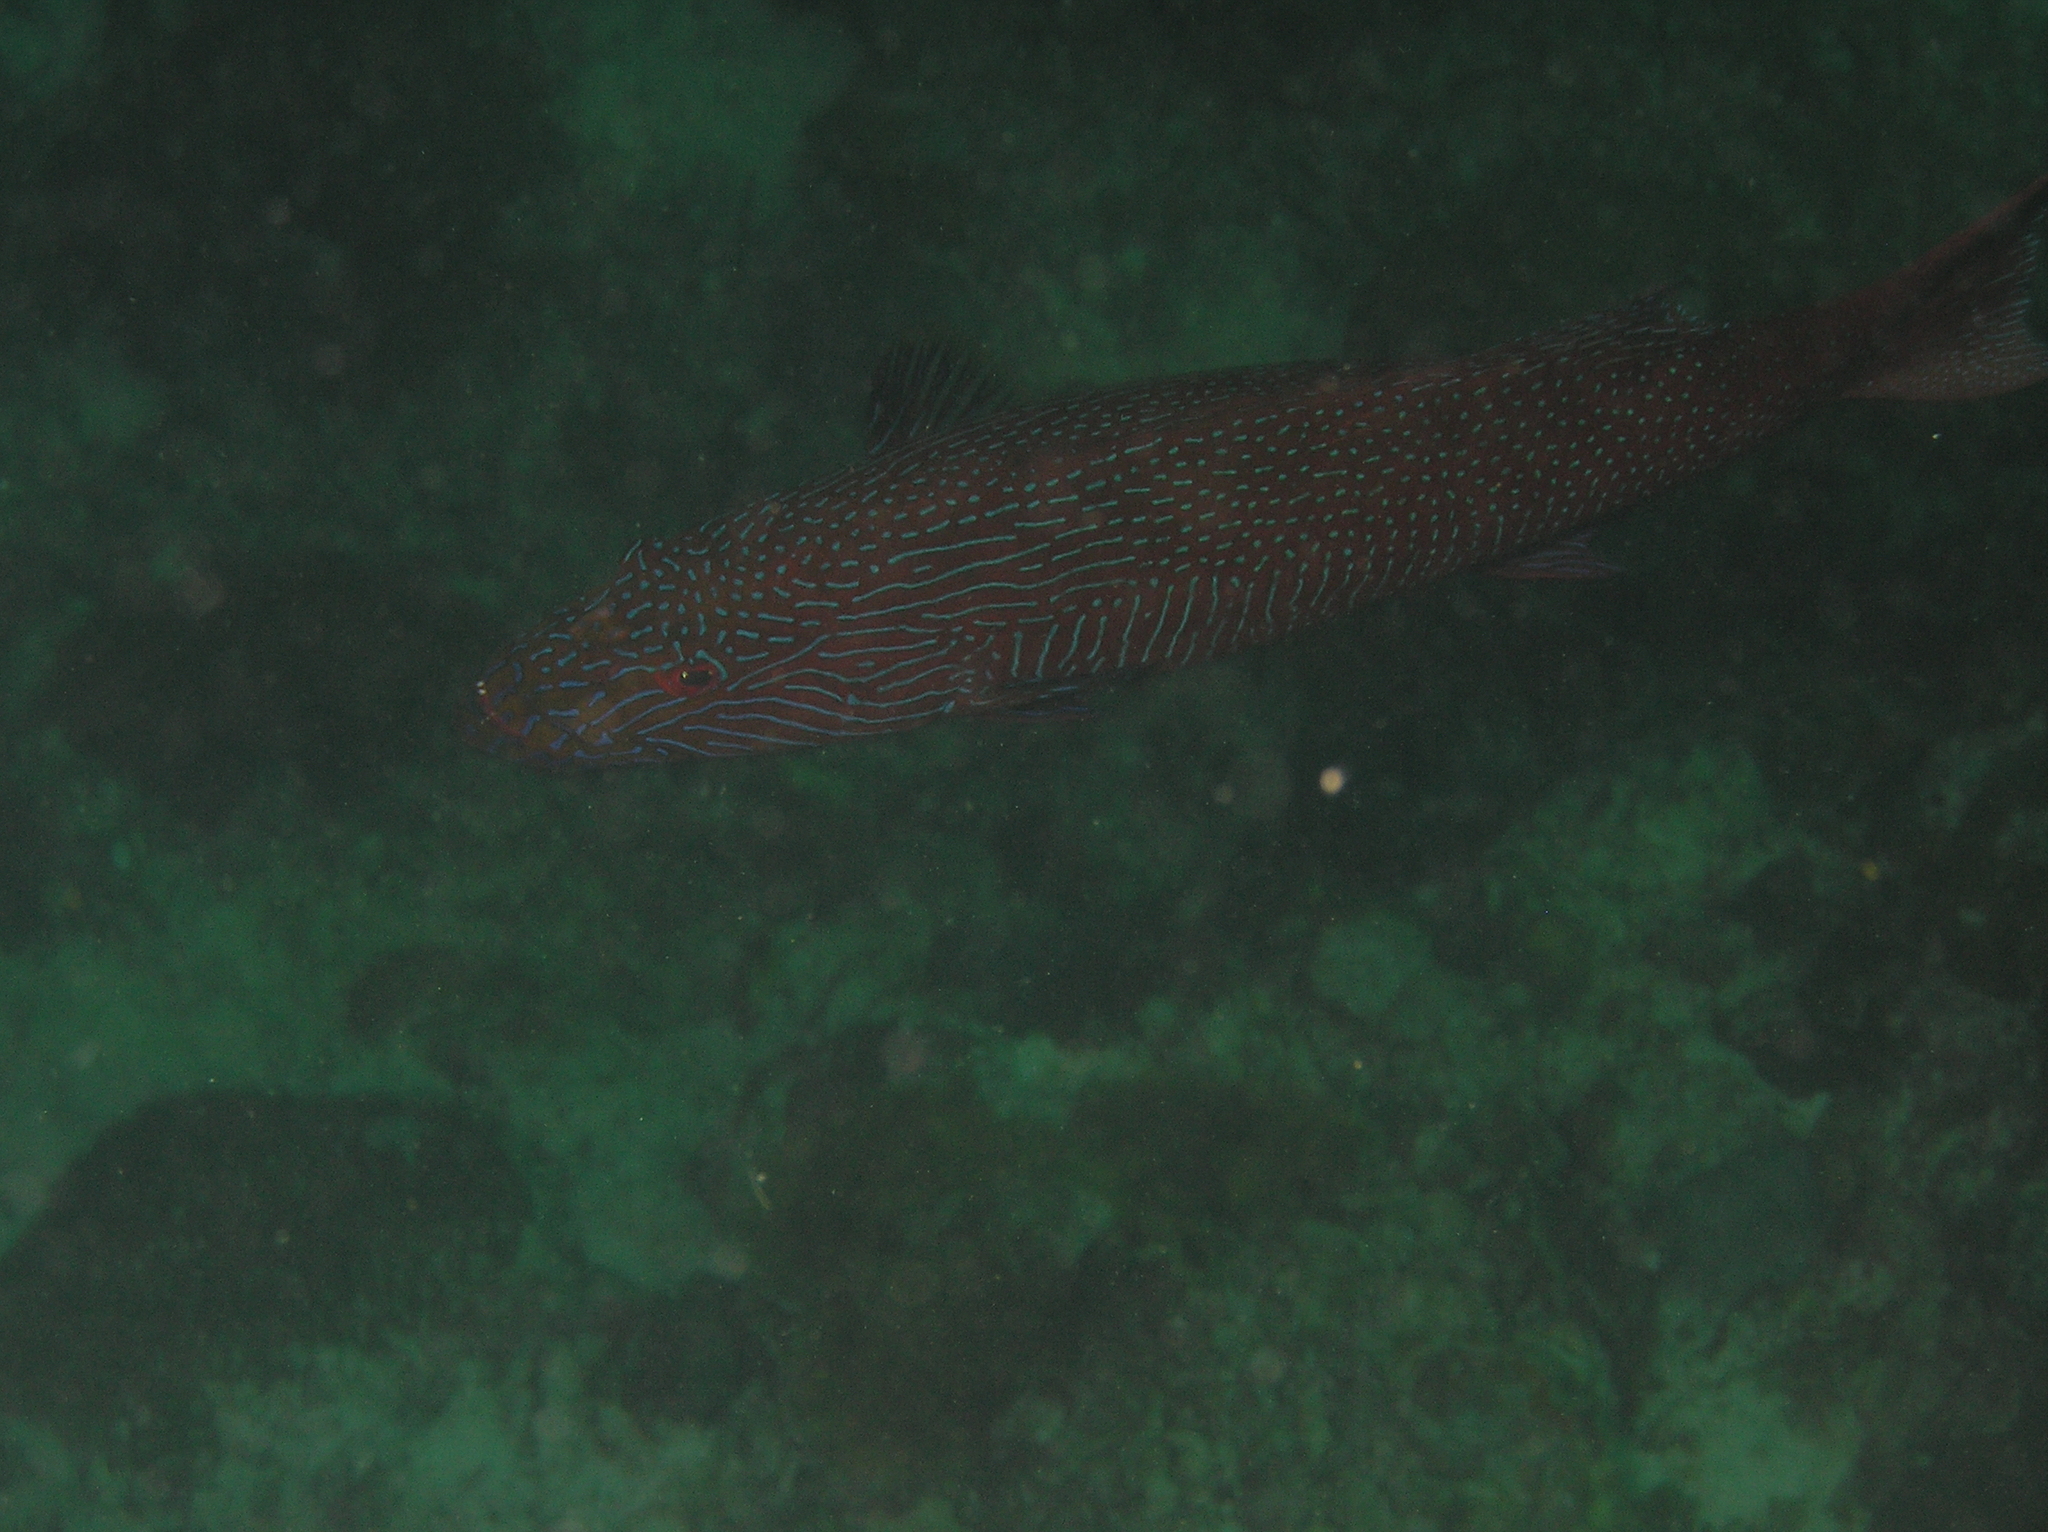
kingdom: Animalia
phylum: Chordata
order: Perciformes
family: Serranidae
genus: Plectropomus
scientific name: Plectropomus oligacanthus
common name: Highfin coral trout
